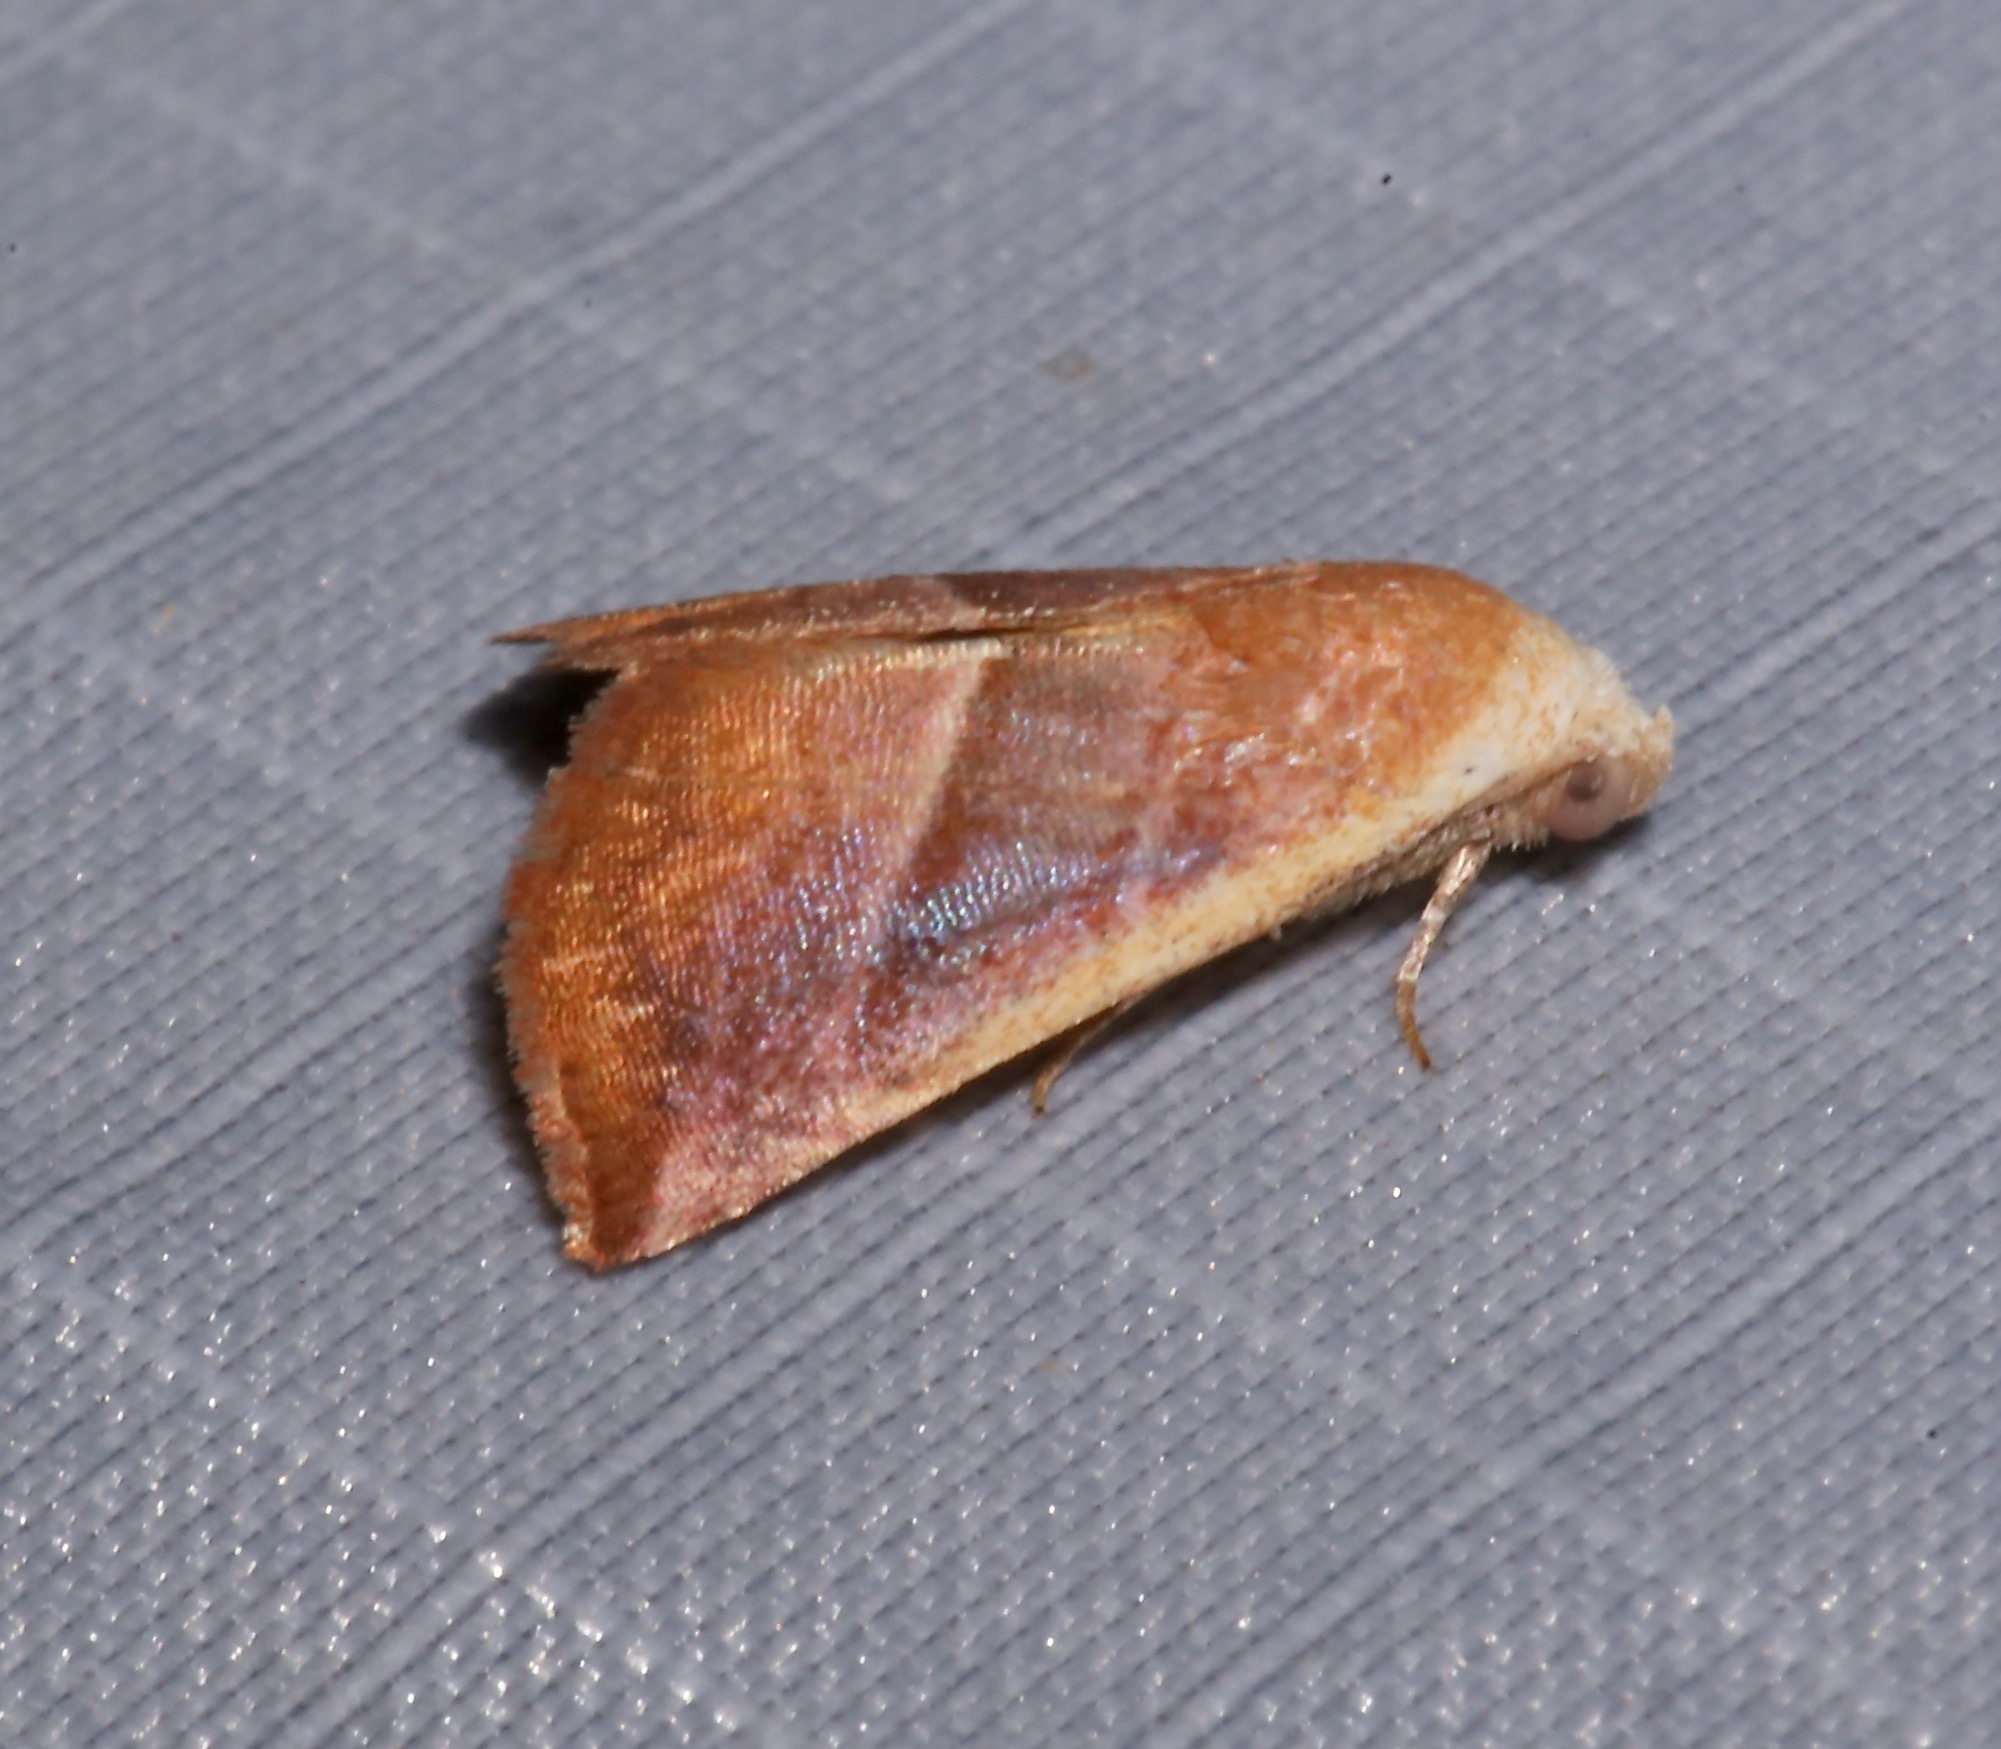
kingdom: Animalia
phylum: Arthropoda
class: Insecta
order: Lepidoptera
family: Noctuidae
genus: Eublemma
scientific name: Eublemma cinnamomea
